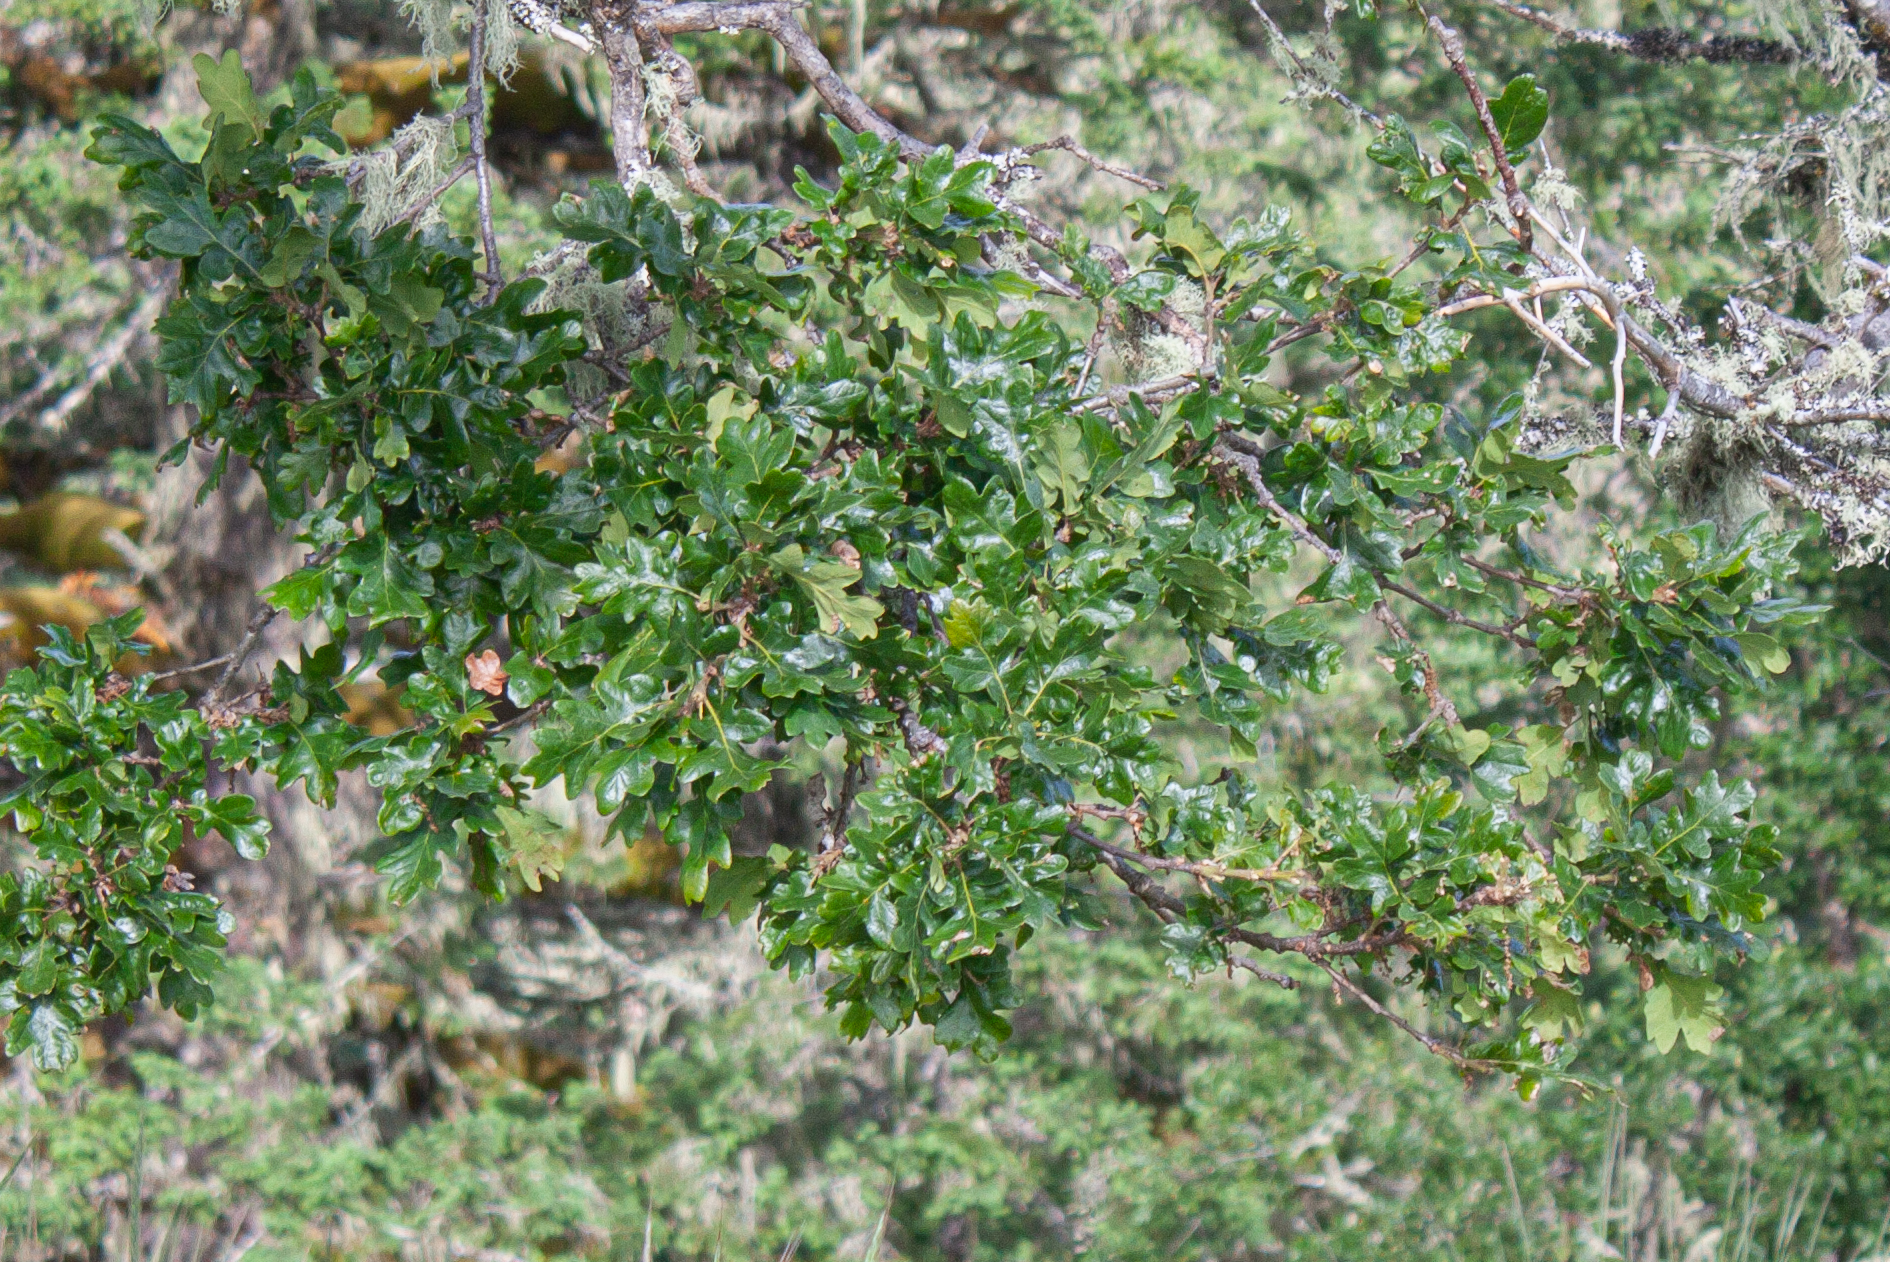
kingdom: Plantae
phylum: Tracheophyta
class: Magnoliopsida
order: Fagales
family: Fagaceae
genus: Quercus
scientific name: Quercus garryana
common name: Garry oak
